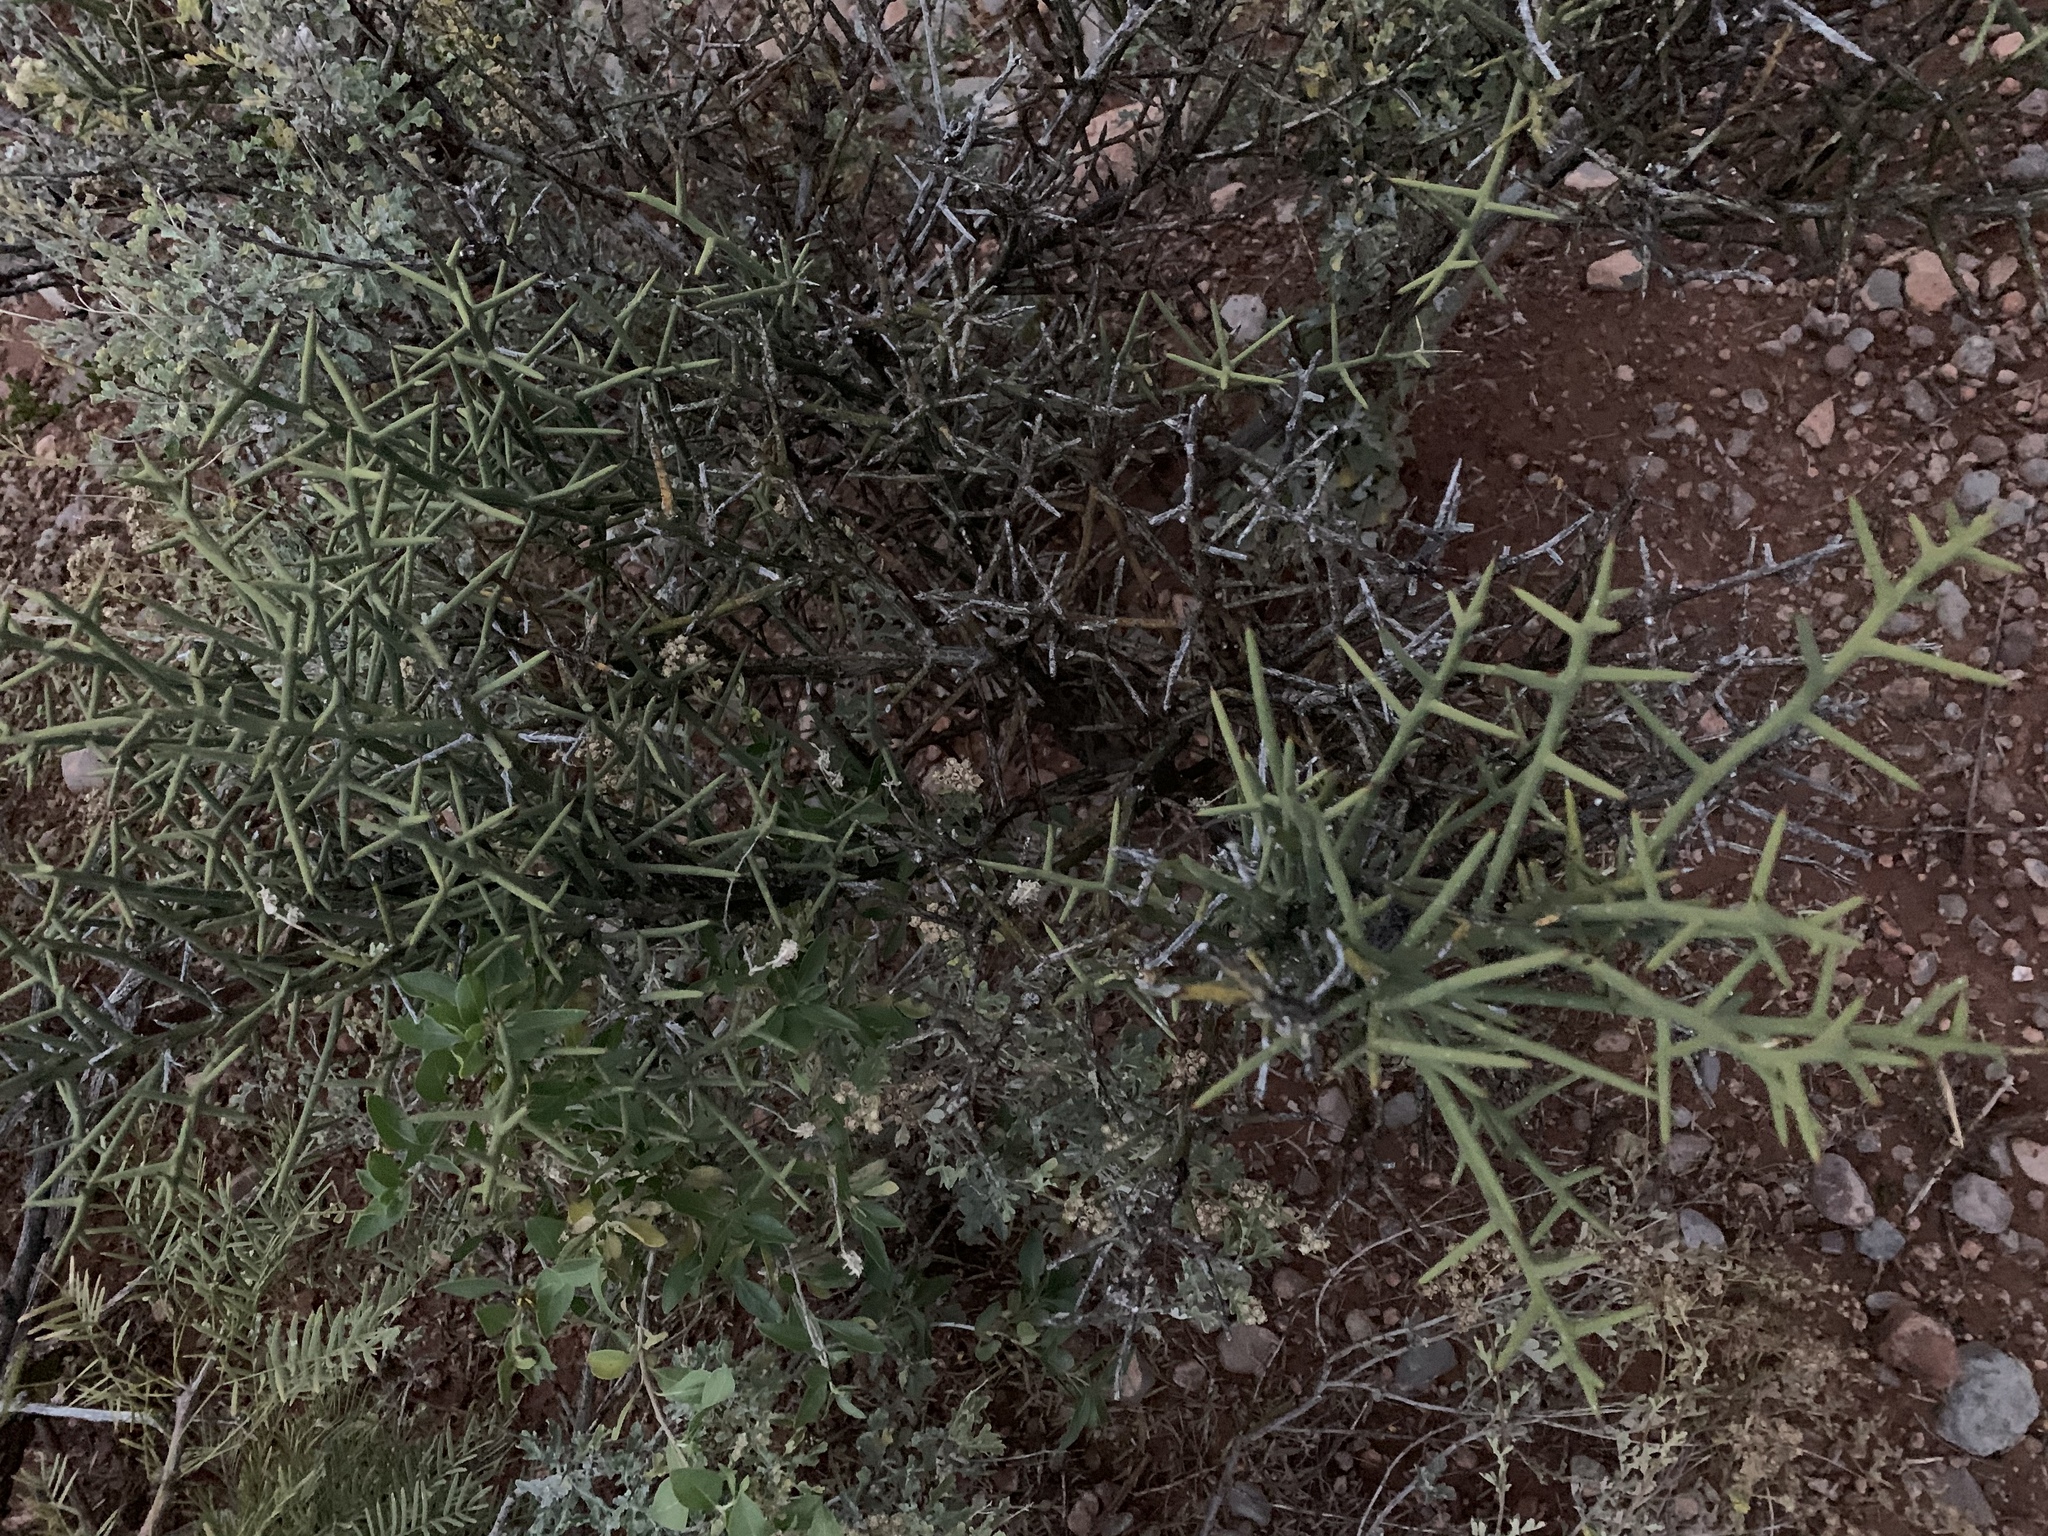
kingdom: Plantae
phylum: Tracheophyta
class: Magnoliopsida
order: Brassicales
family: Koeberliniaceae
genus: Koeberlinia
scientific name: Koeberlinia spinosa
